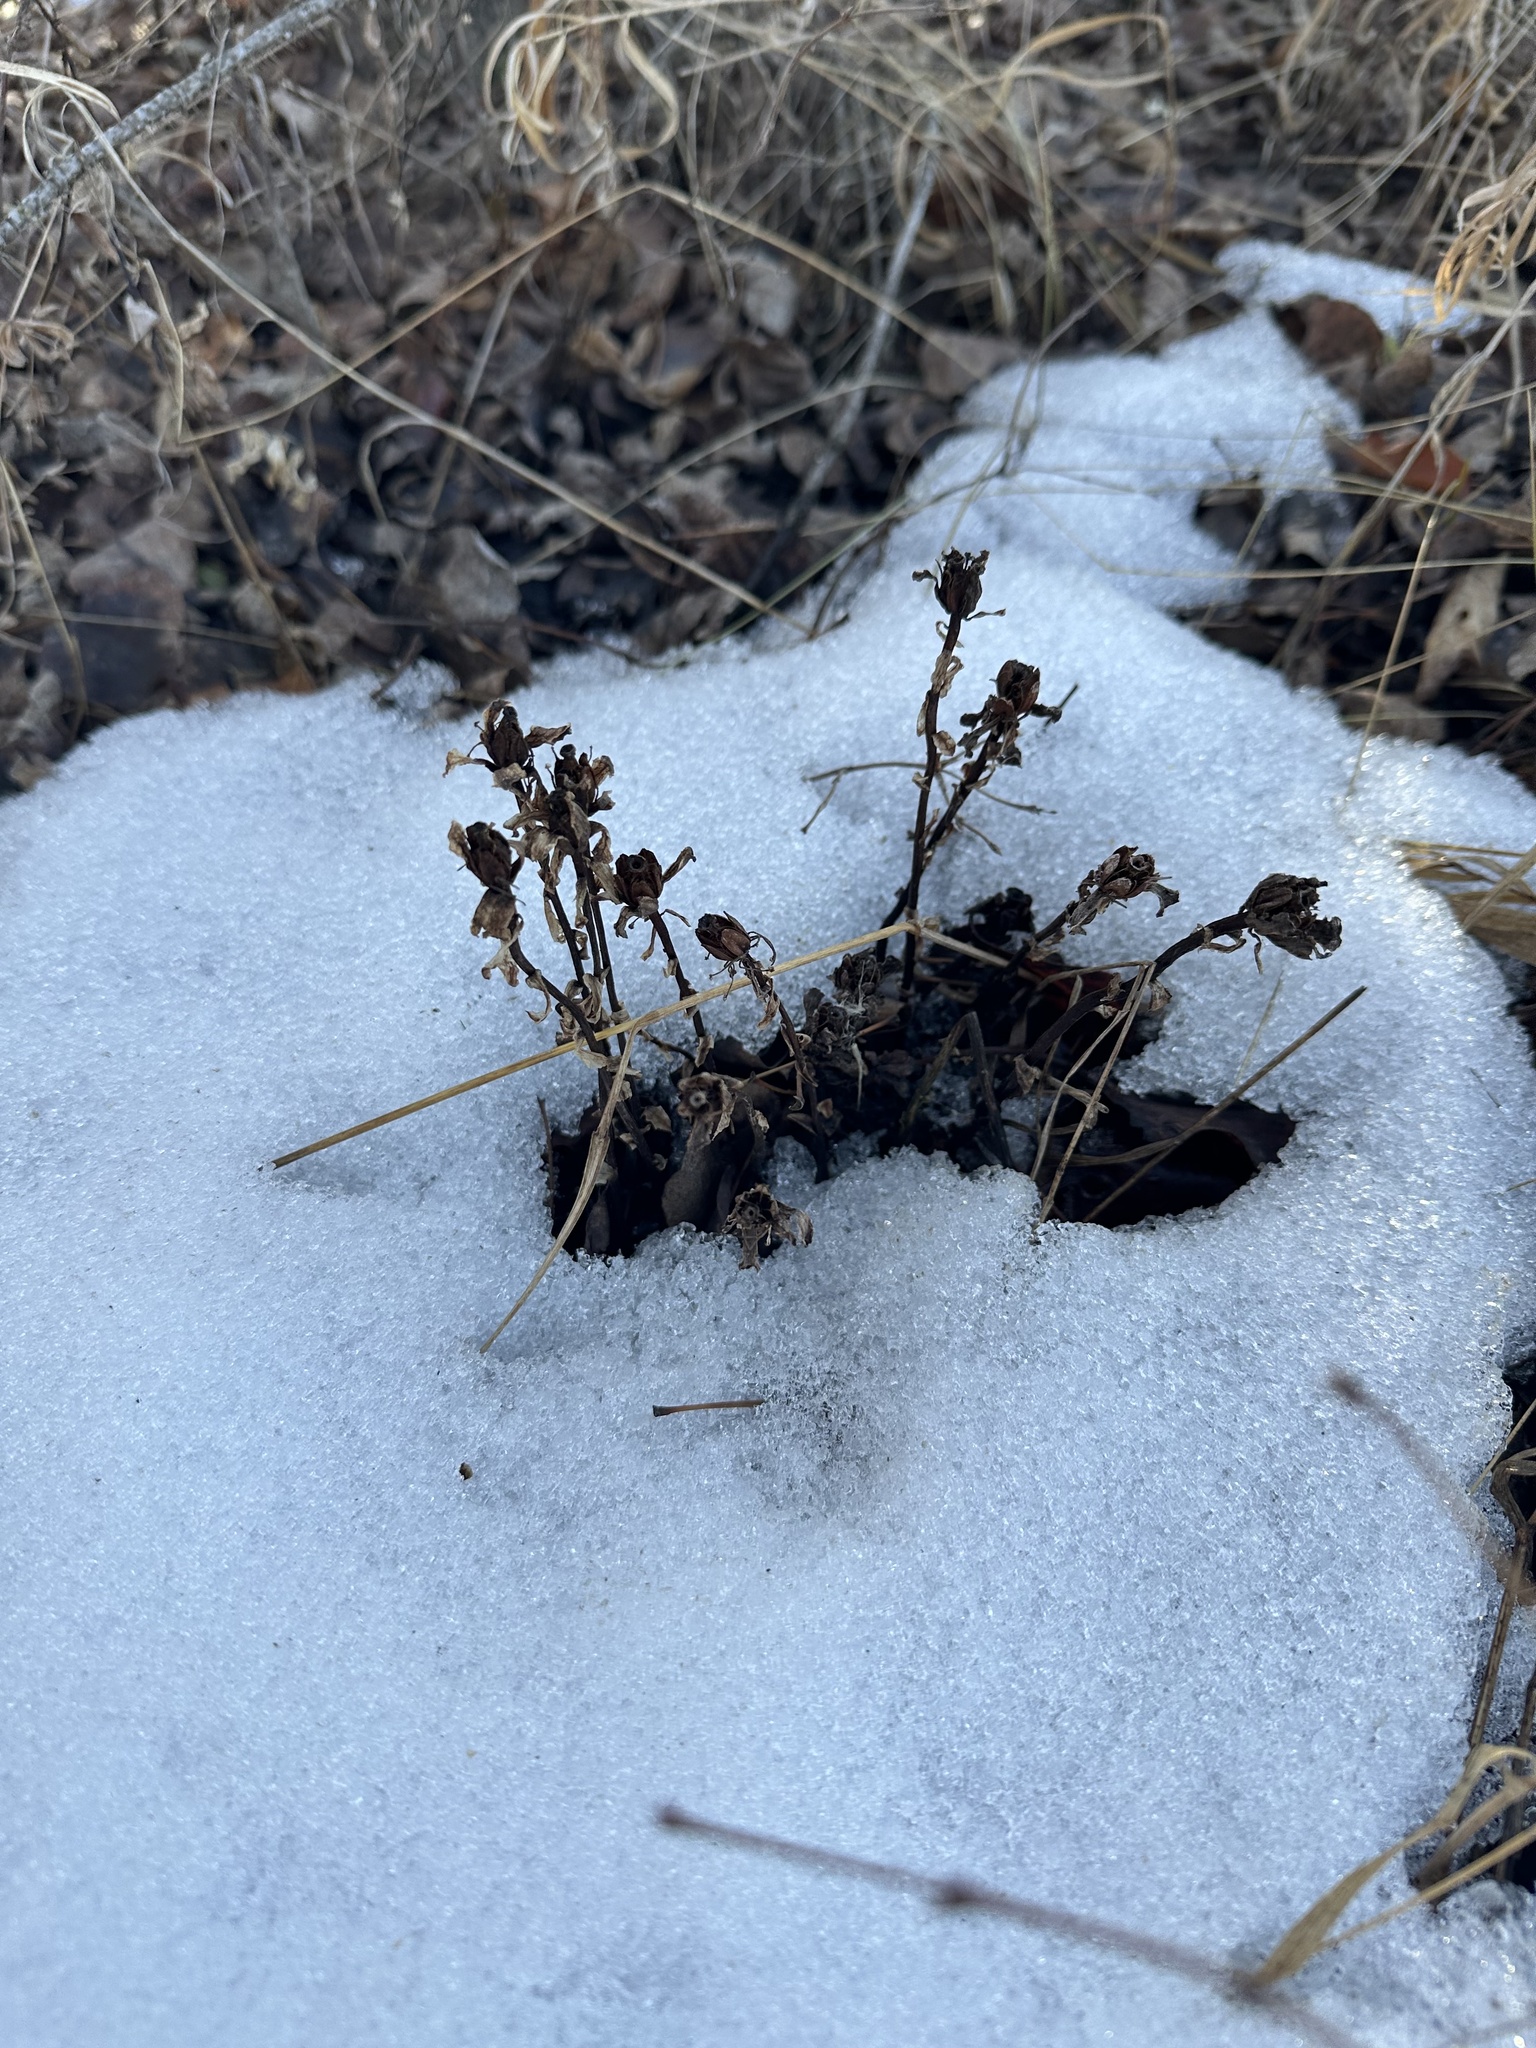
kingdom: Plantae
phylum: Tracheophyta
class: Magnoliopsida
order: Ericales
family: Ericaceae
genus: Monotropa
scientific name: Monotropa uniflora
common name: Convulsion root
